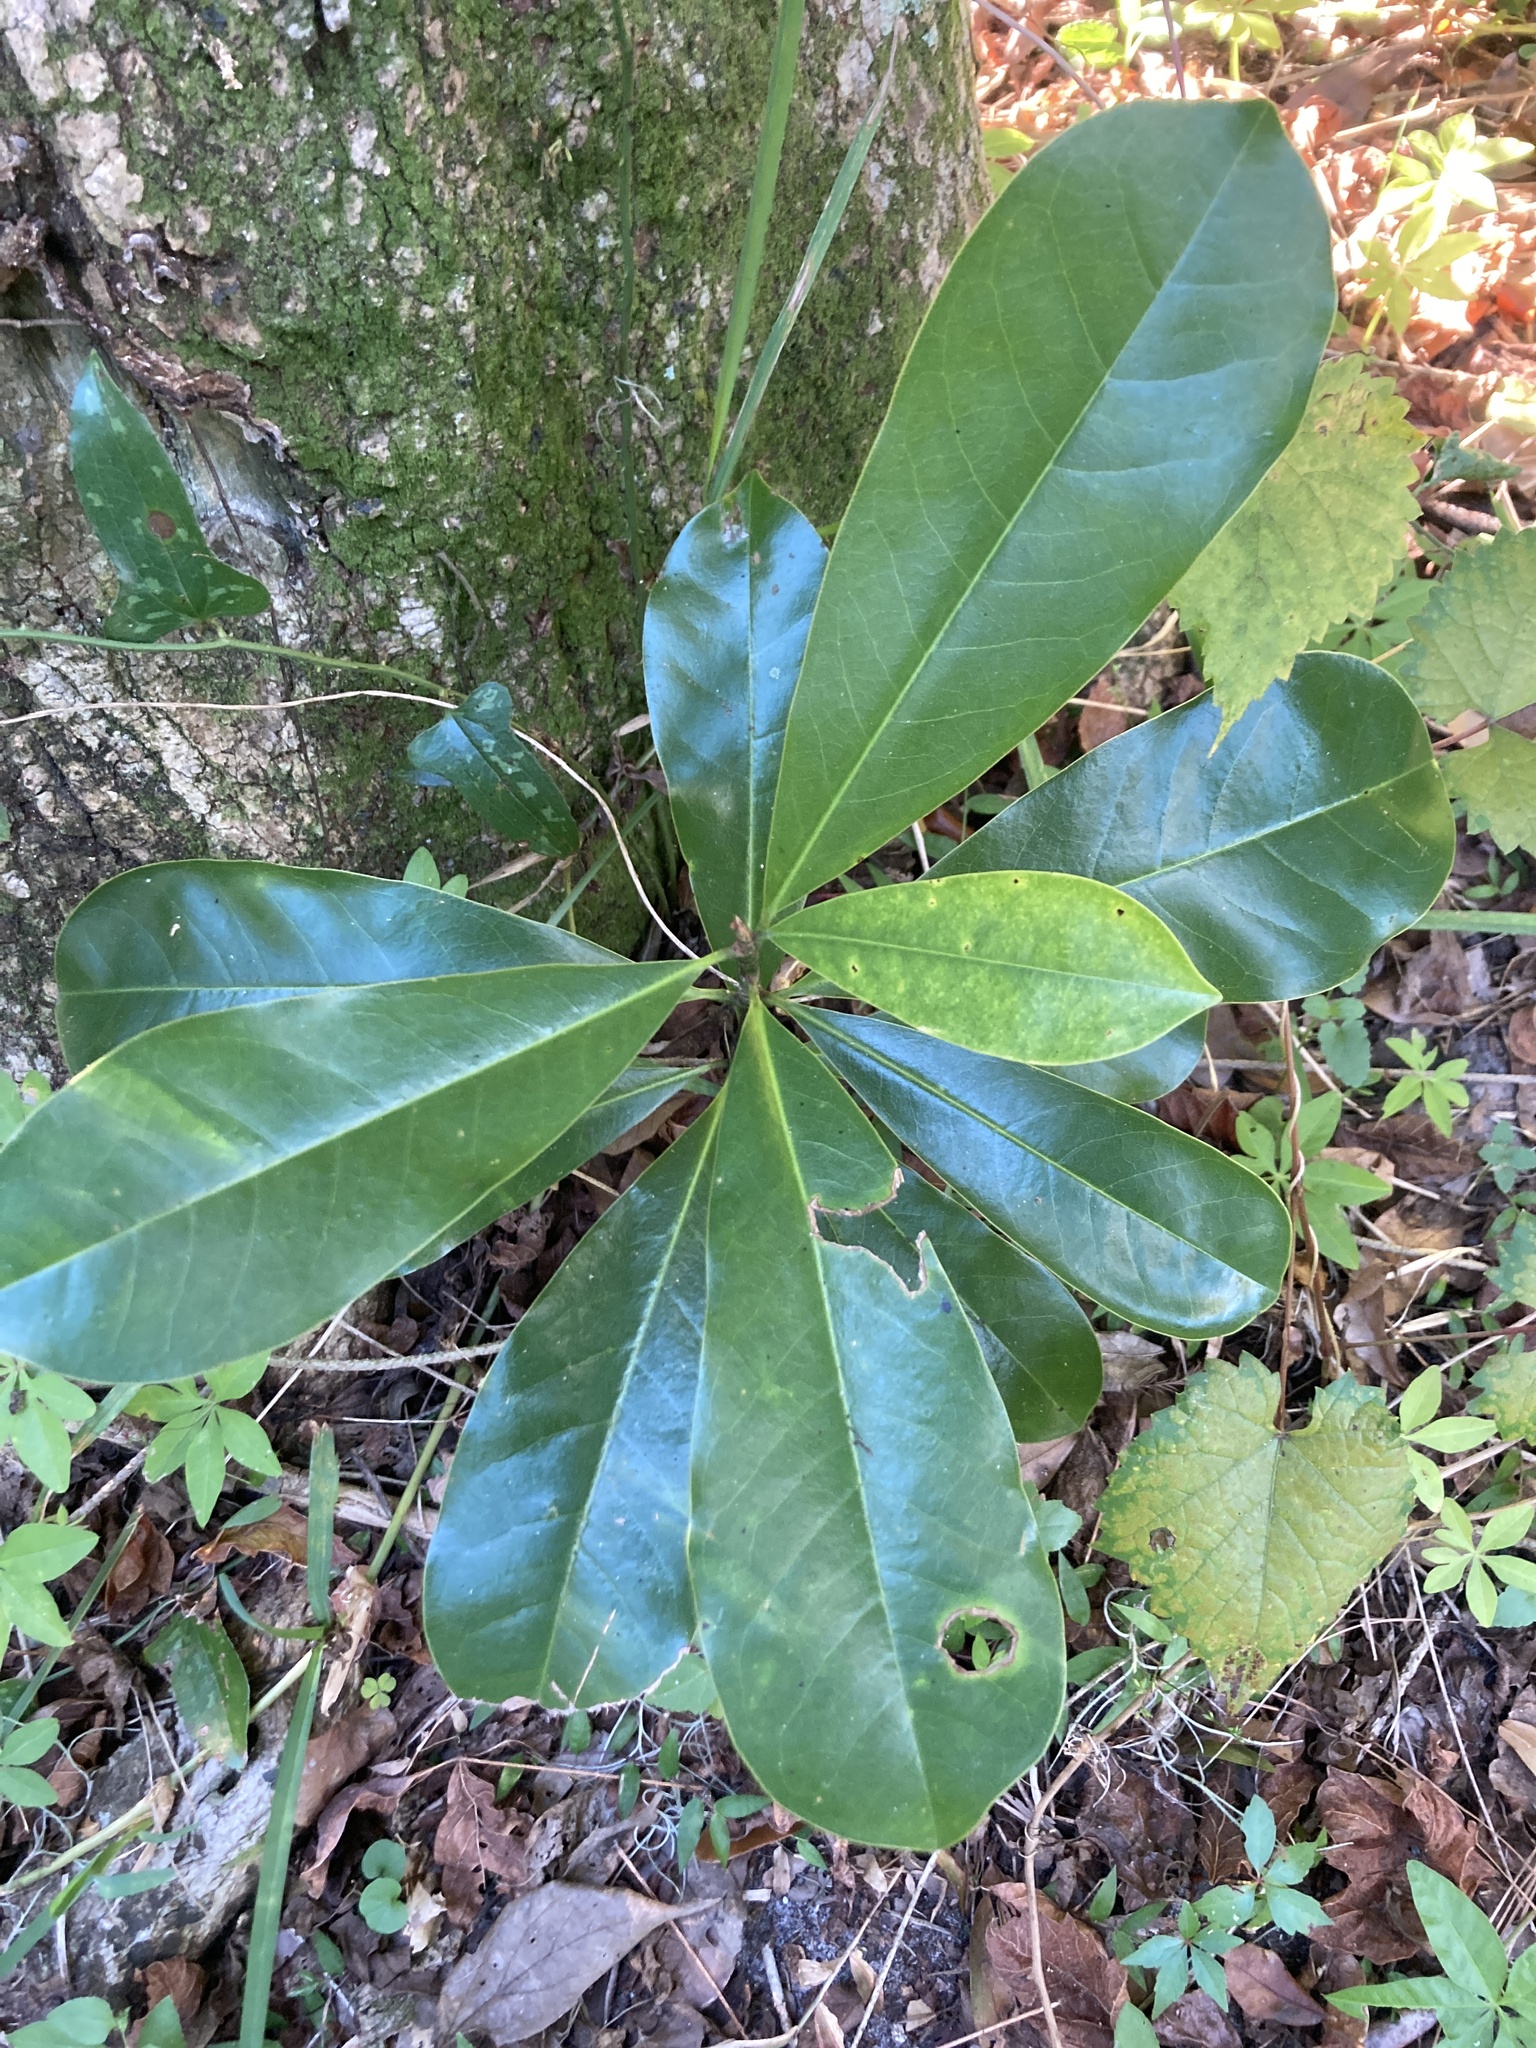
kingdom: Plantae
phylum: Tracheophyta
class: Magnoliopsida
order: Magnoliales
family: Magnoliaceae
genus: Magnolia
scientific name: Magnolia grandiflora
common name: Southern magnolia
